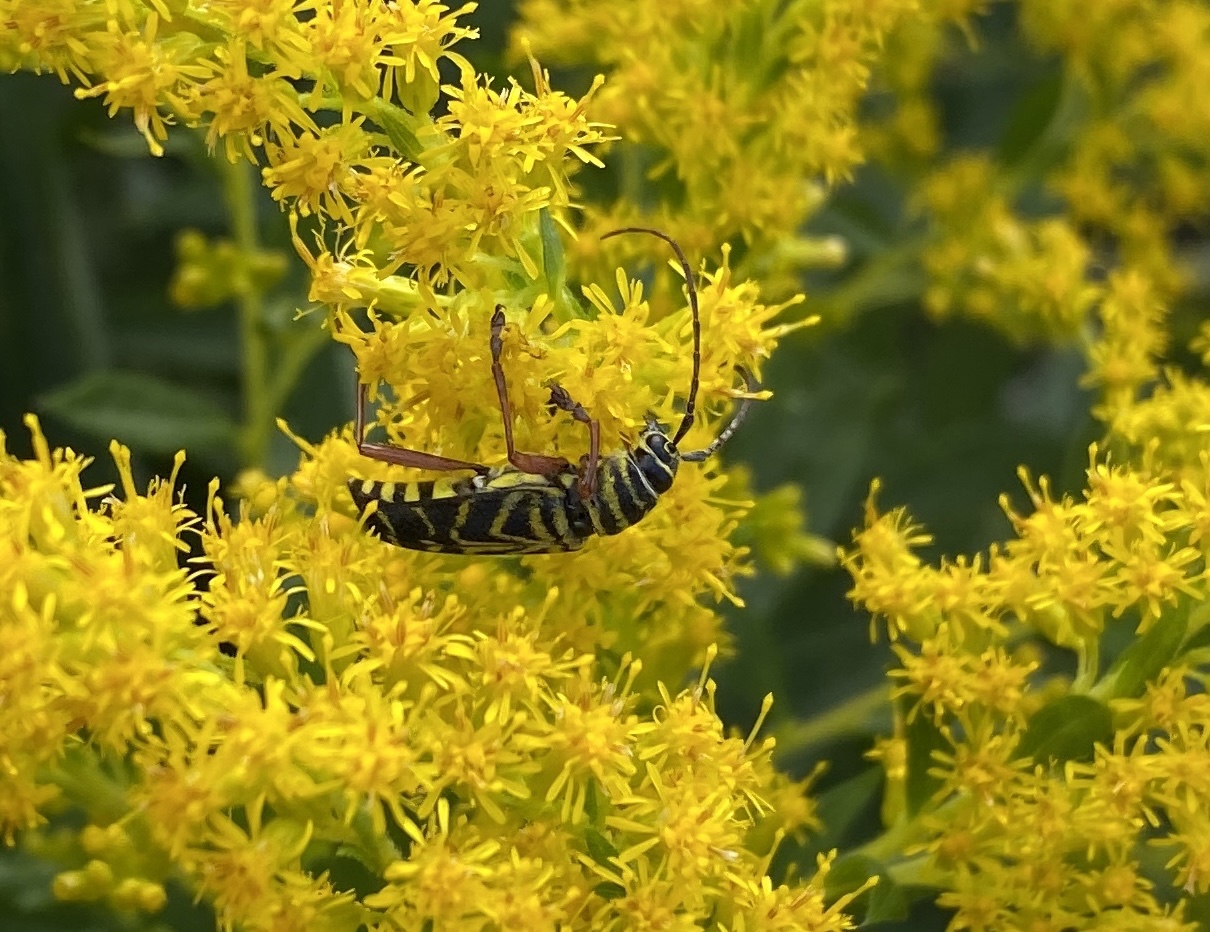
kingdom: Animalia
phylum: Arthropoda
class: Insecta
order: Coleoptera
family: Cerambycidae
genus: Megacyllene
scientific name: Megacyllene robiniae
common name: Locust borer
